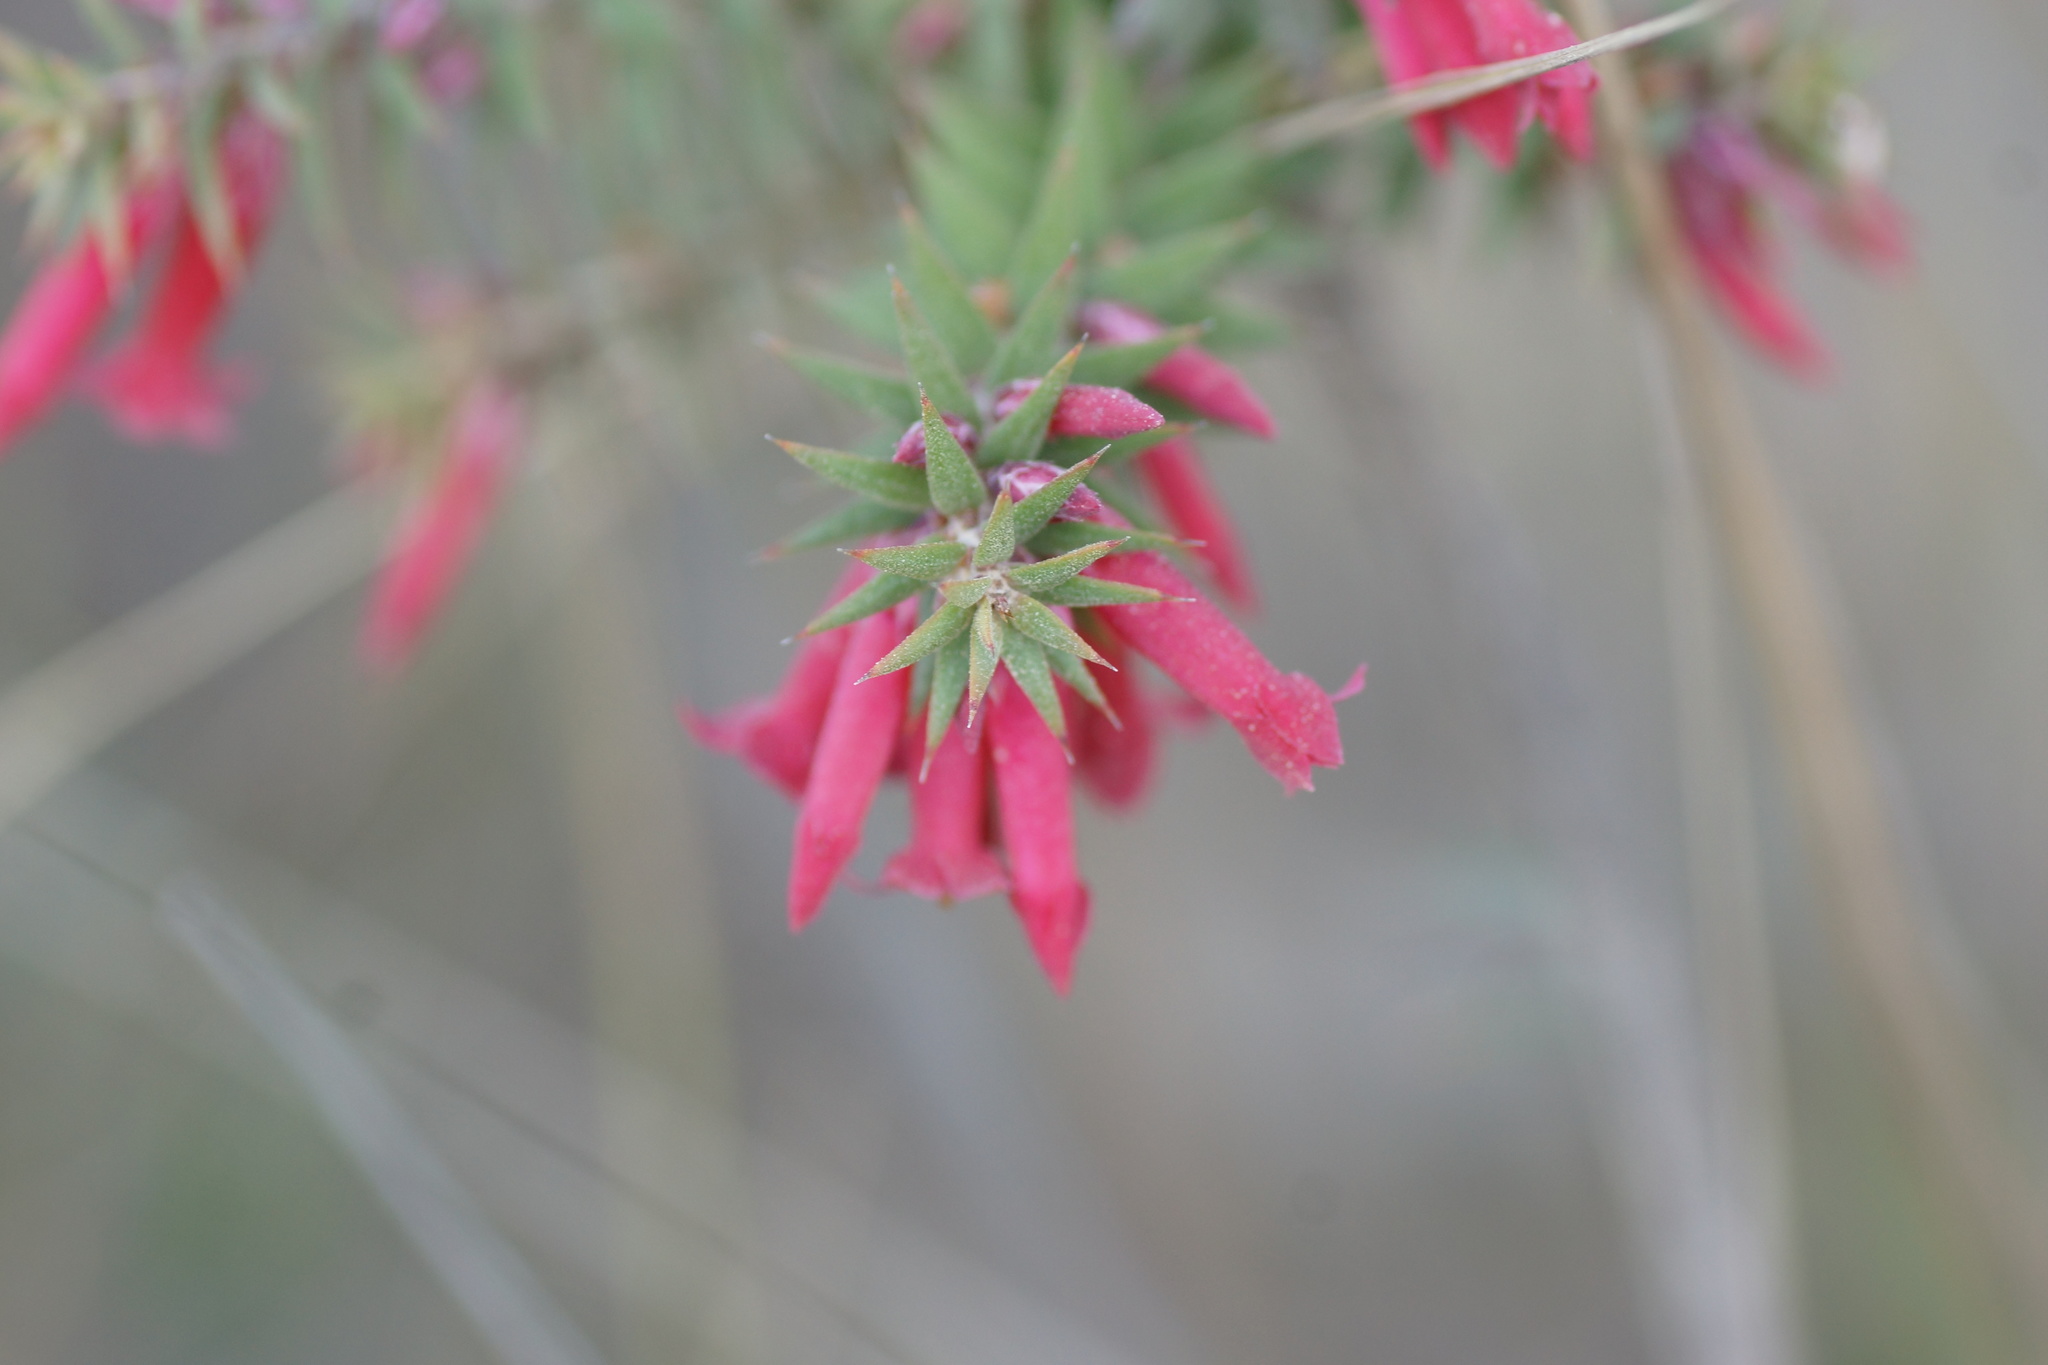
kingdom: Plantae
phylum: Tracheophyta
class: Magnoliopsida
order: Ericales
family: Ericaceae
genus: Epacris
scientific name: Epacris impressa
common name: Common-heath
